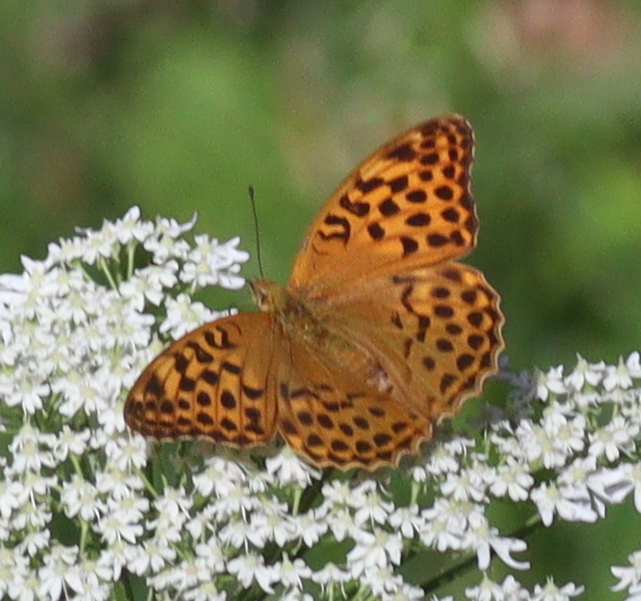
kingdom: Animalia
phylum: Arthropoda
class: Insecta
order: Lepidoptera
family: Nymphalidae
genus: Argynnis
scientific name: Argynnis paphia
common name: Silver-washed fritillary
